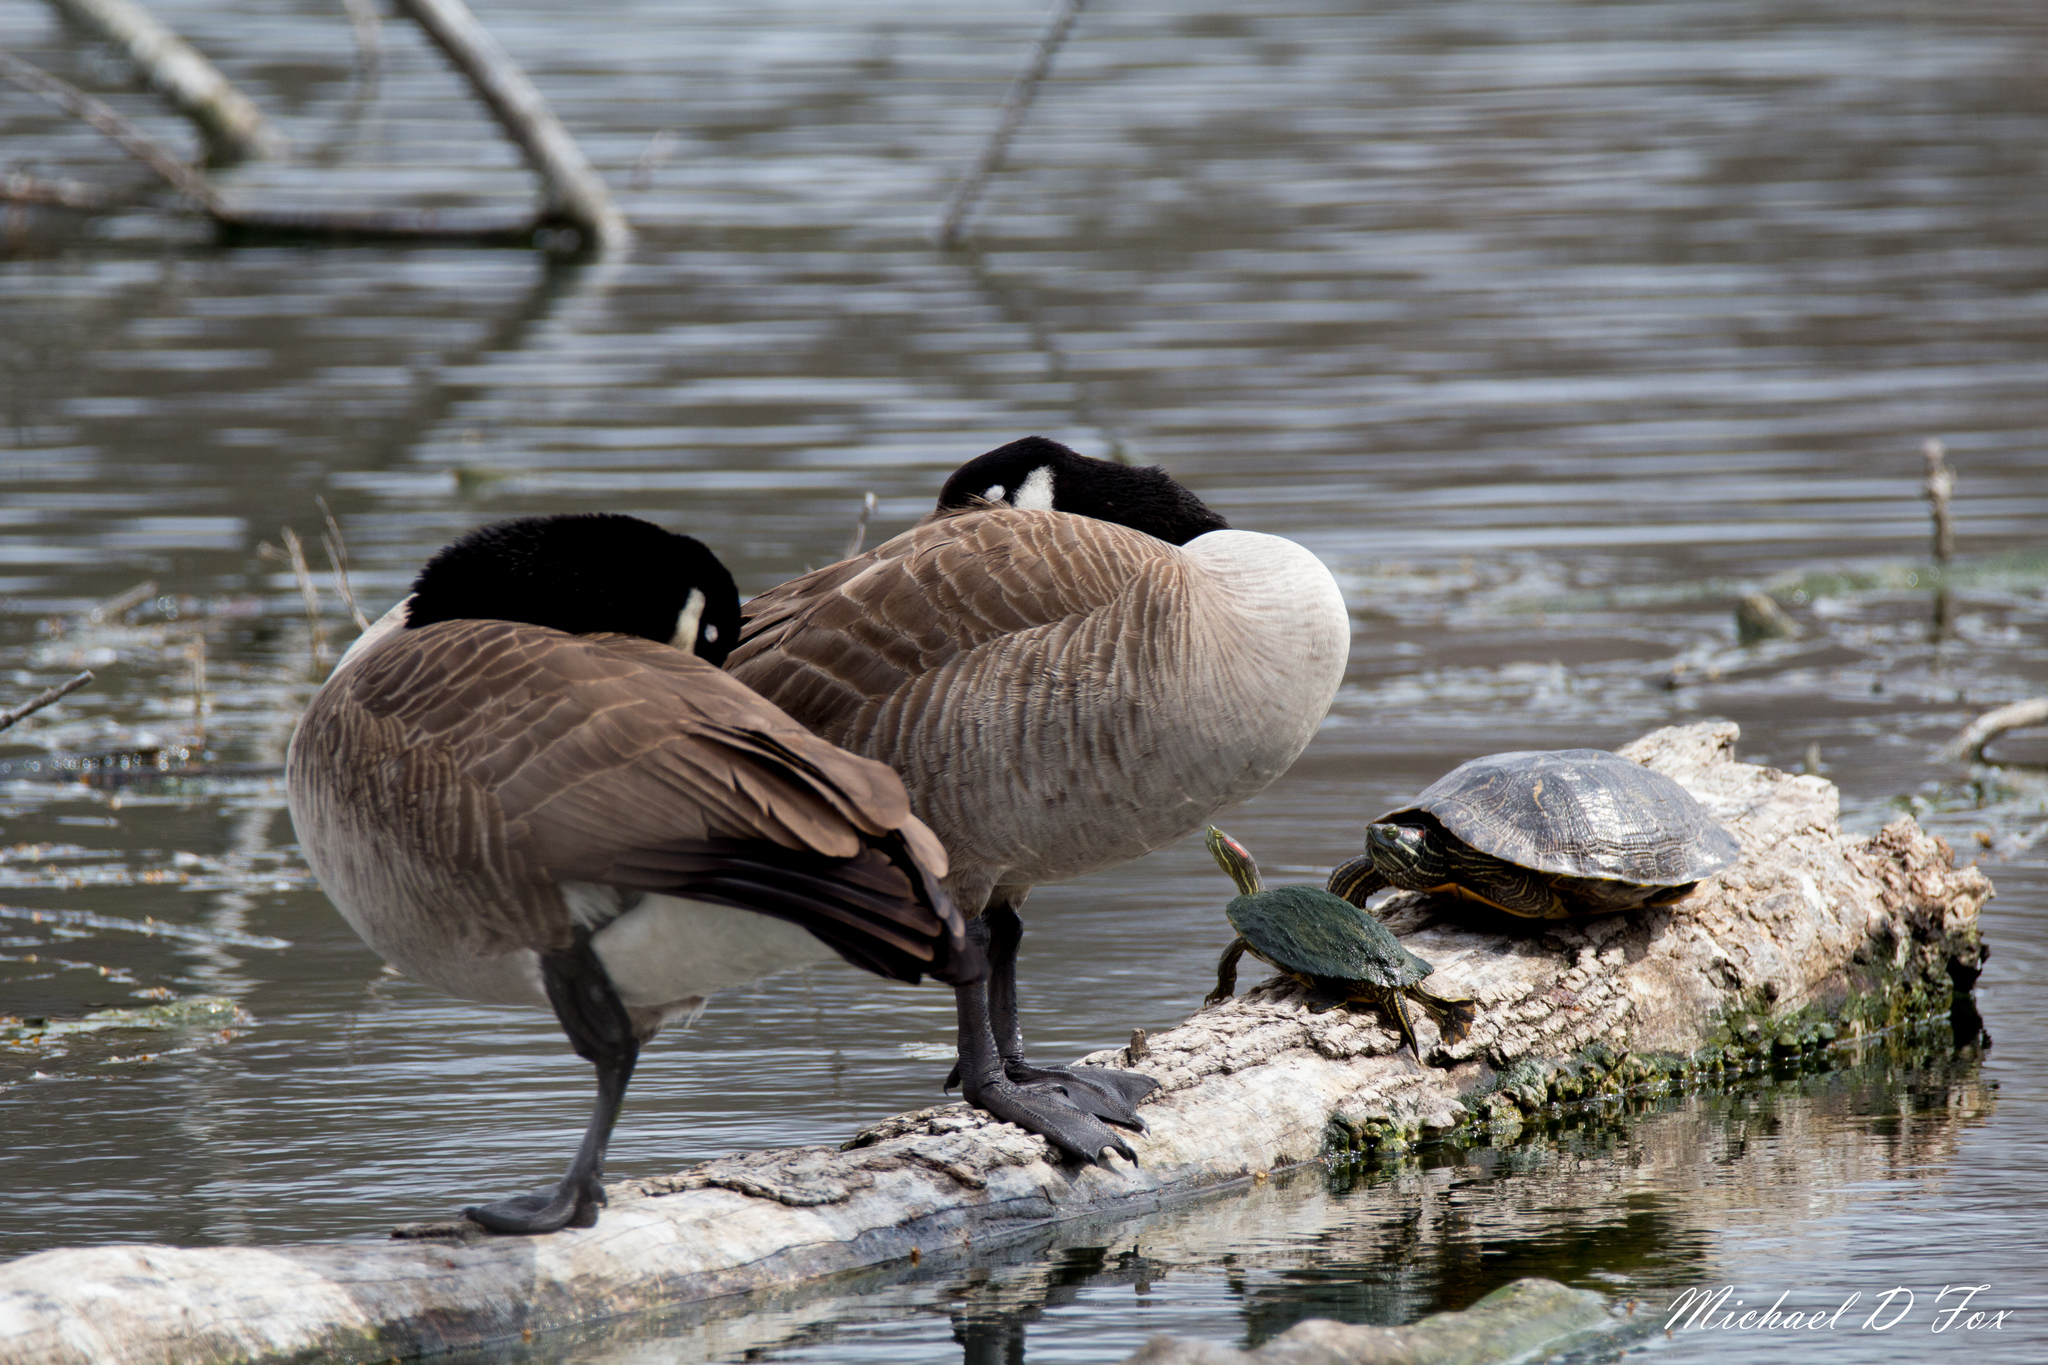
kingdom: Animalia
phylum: Chordata
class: Aves
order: Anseriformes
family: Anatidae
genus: Branta
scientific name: Branta canadensis
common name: Canada goose
